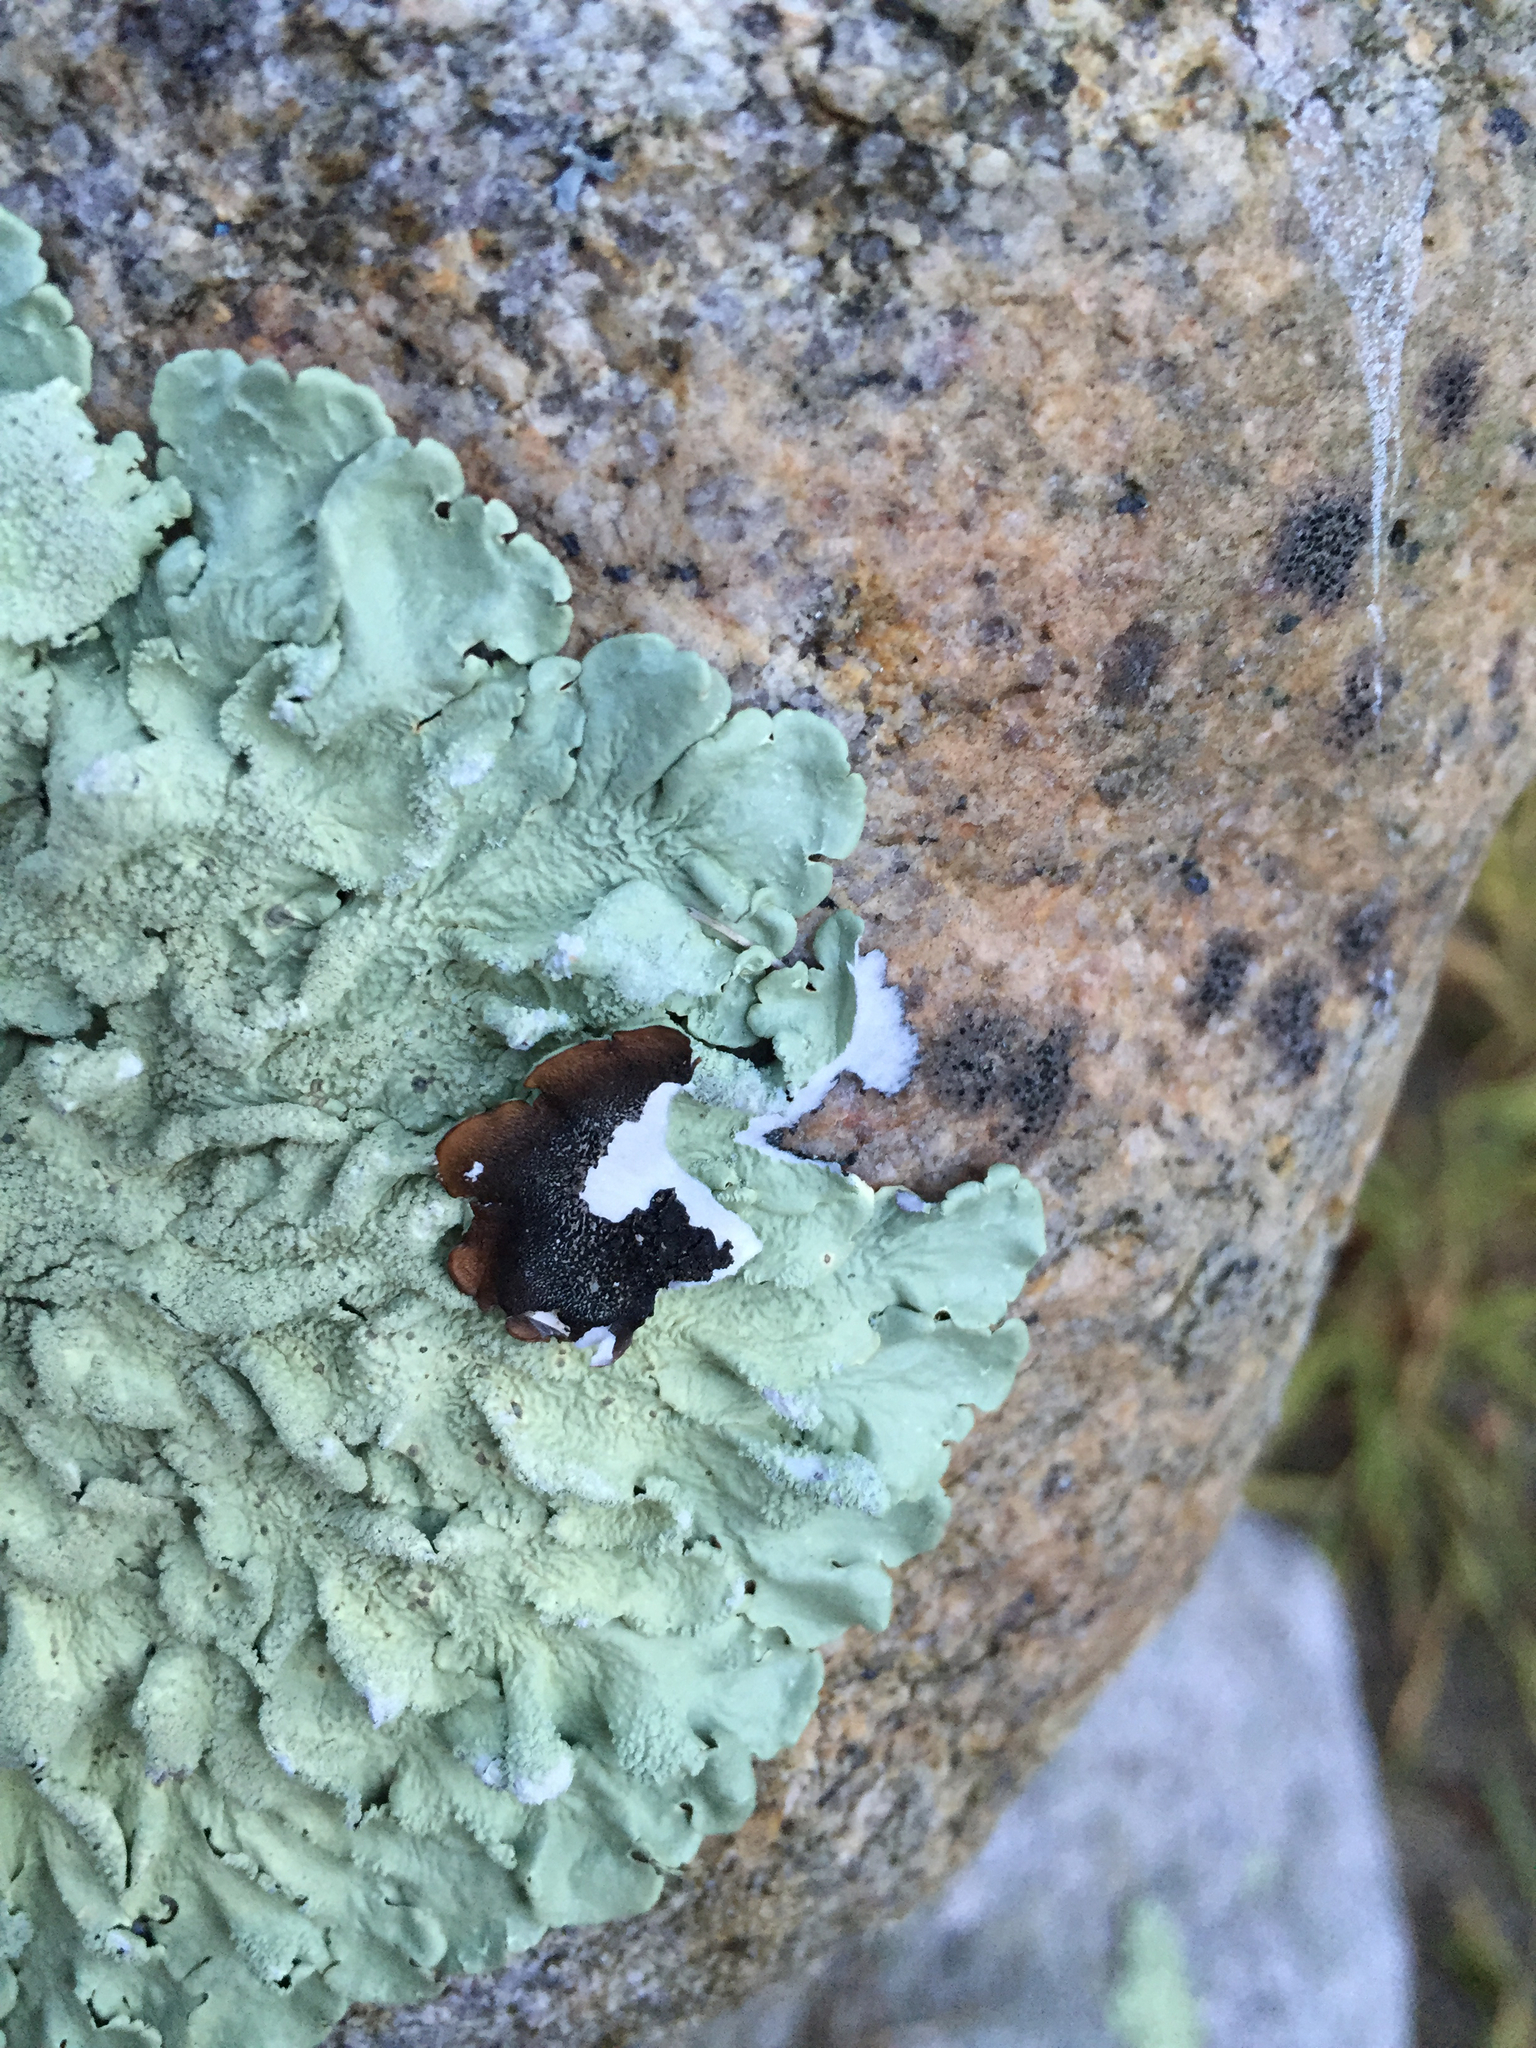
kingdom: Fungi
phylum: Ascomycota
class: Lecanoromycetes
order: Lecanorales
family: Parmeliaceae
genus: Flavoparmelia
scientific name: Flavoparmelia caperata
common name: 40-mile per hour lichen
